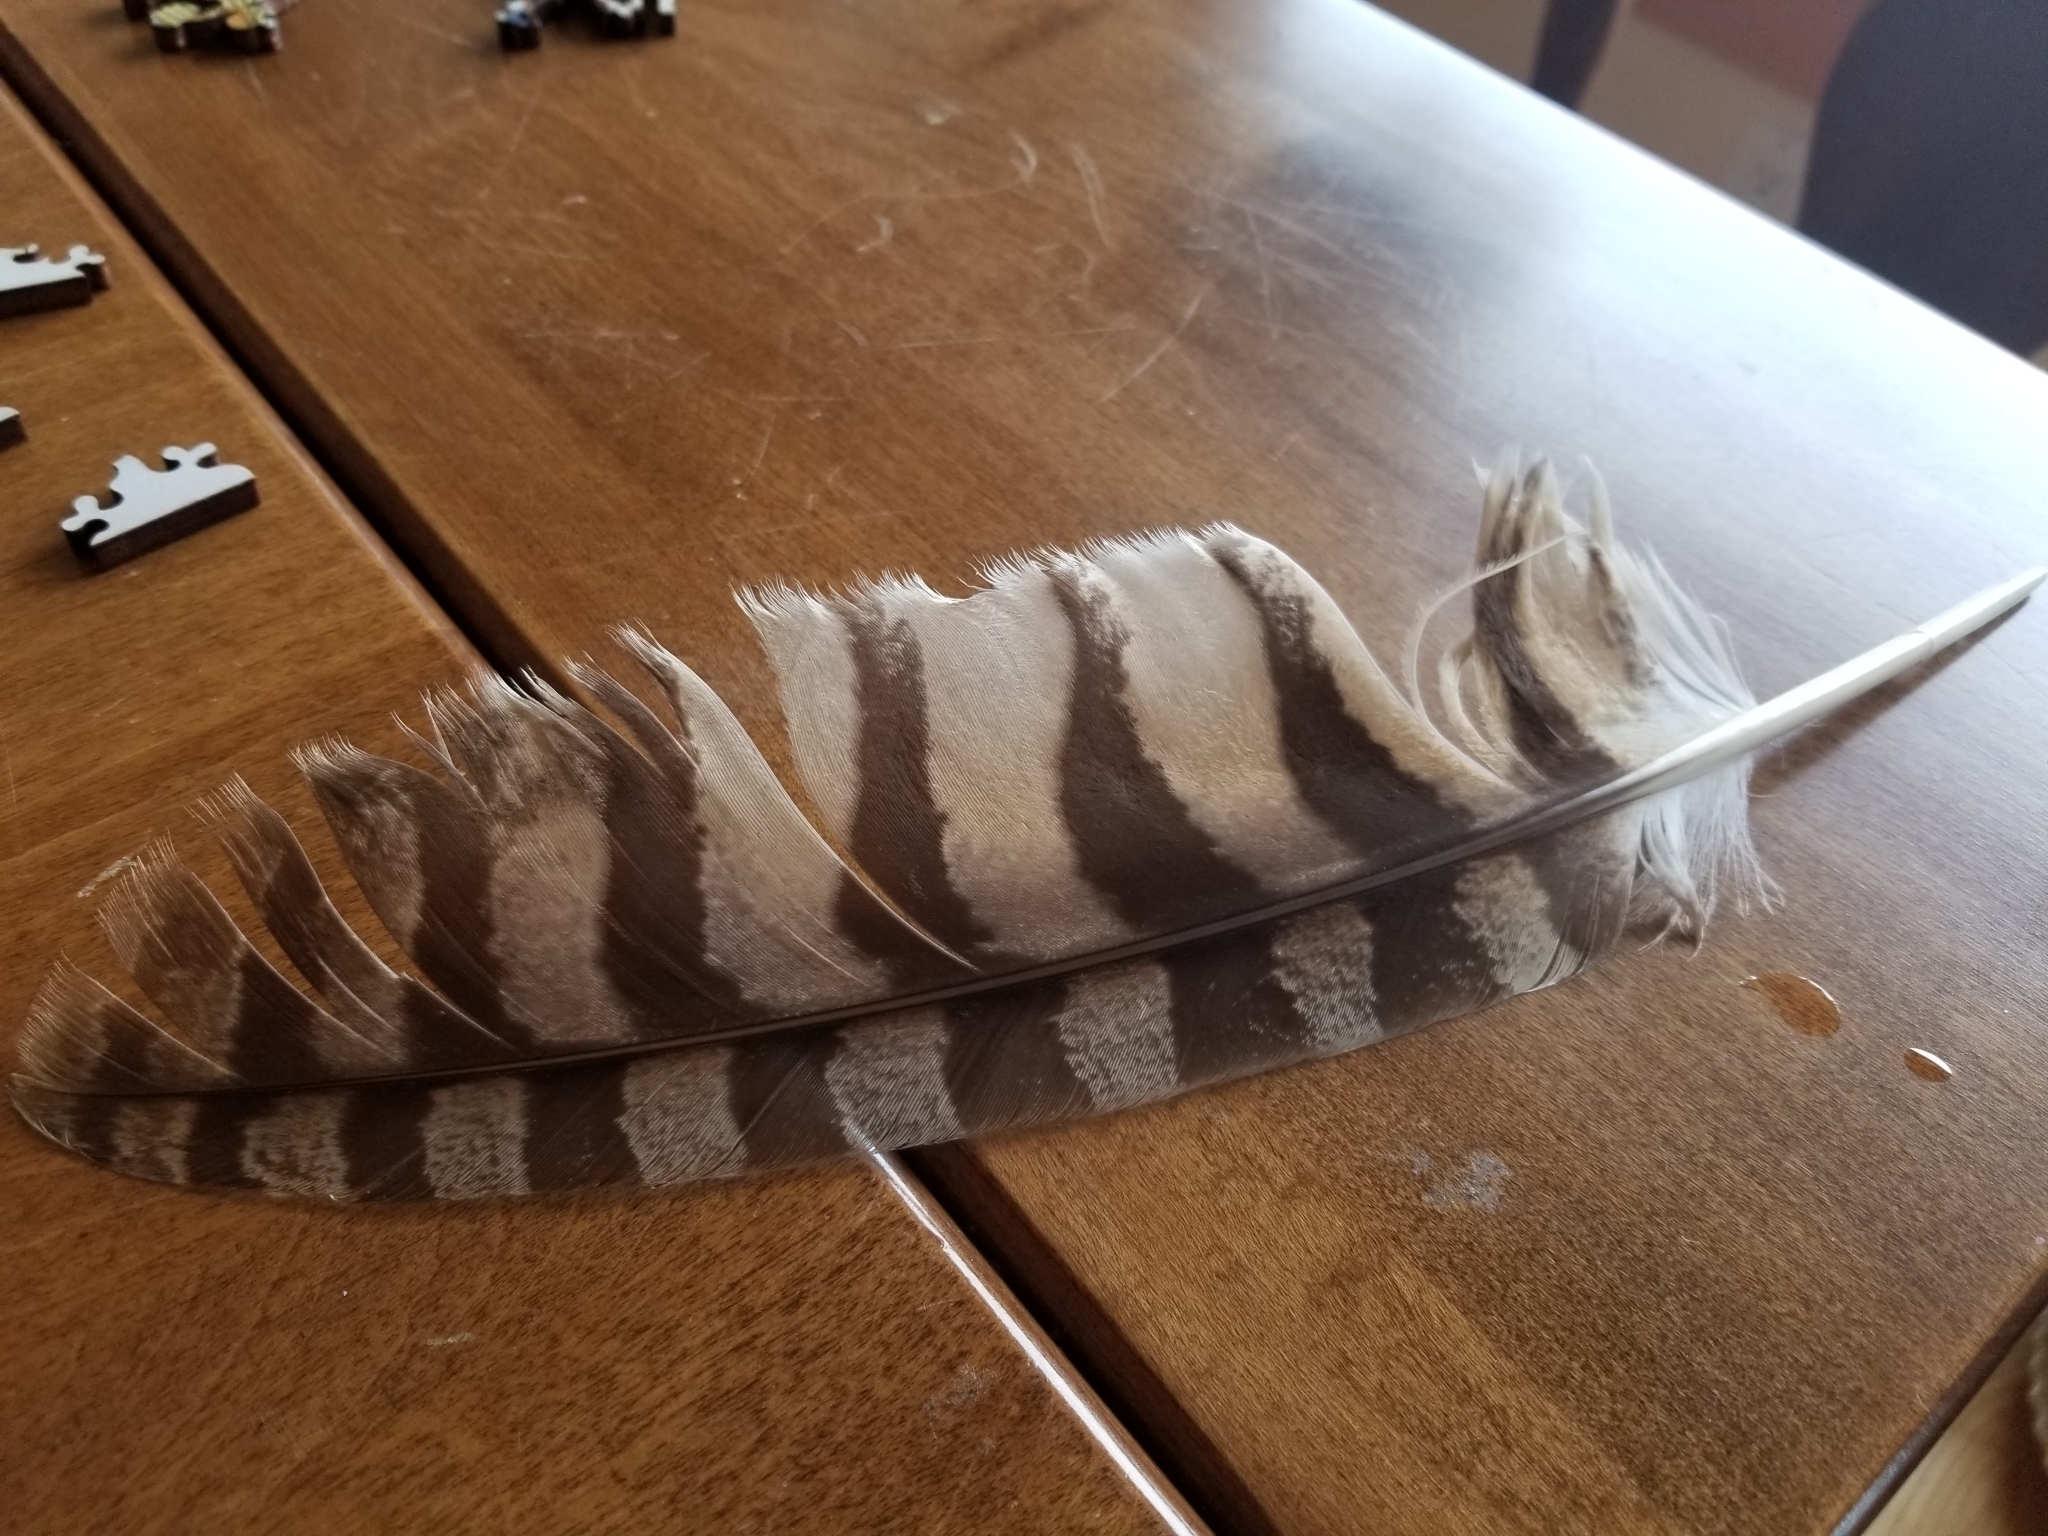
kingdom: Animalia
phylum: Chordata
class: Aves
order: Strigiformes
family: Strigidae
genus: Bubo
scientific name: Bubo virginianus
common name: Great horned owl
